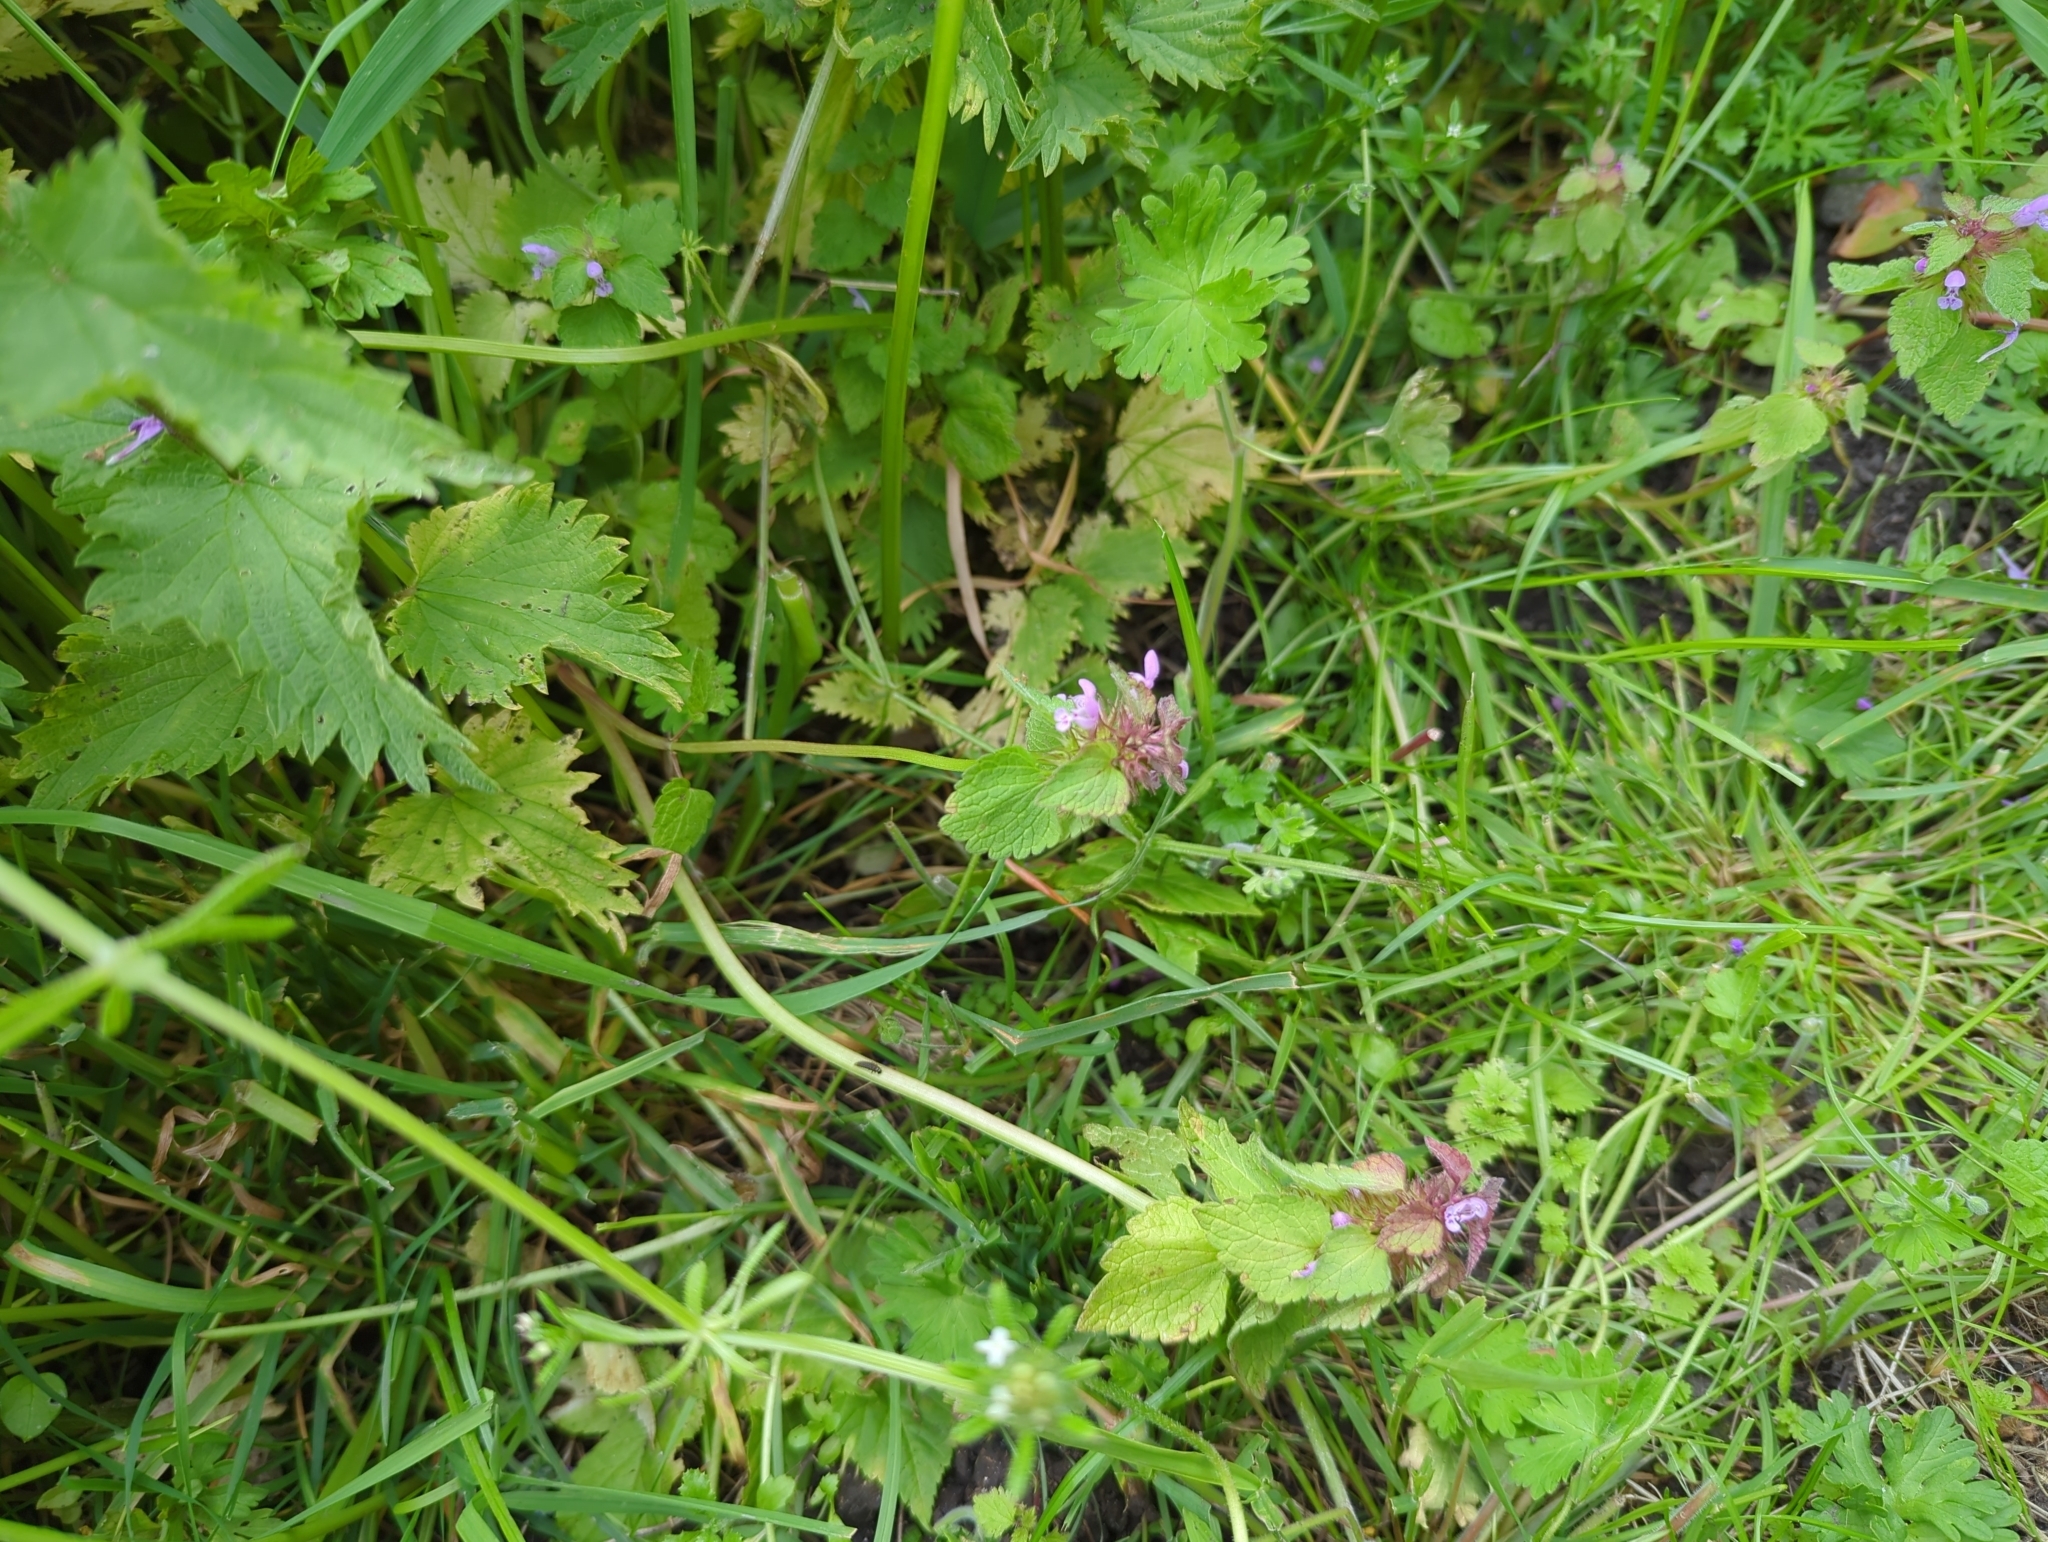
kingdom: Plantae
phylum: Tracheophyta
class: Magnoliopsida
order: Lamiales
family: Lamiaceae
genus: Lamium
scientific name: Lamium purpureum
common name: Red dead-nettle
